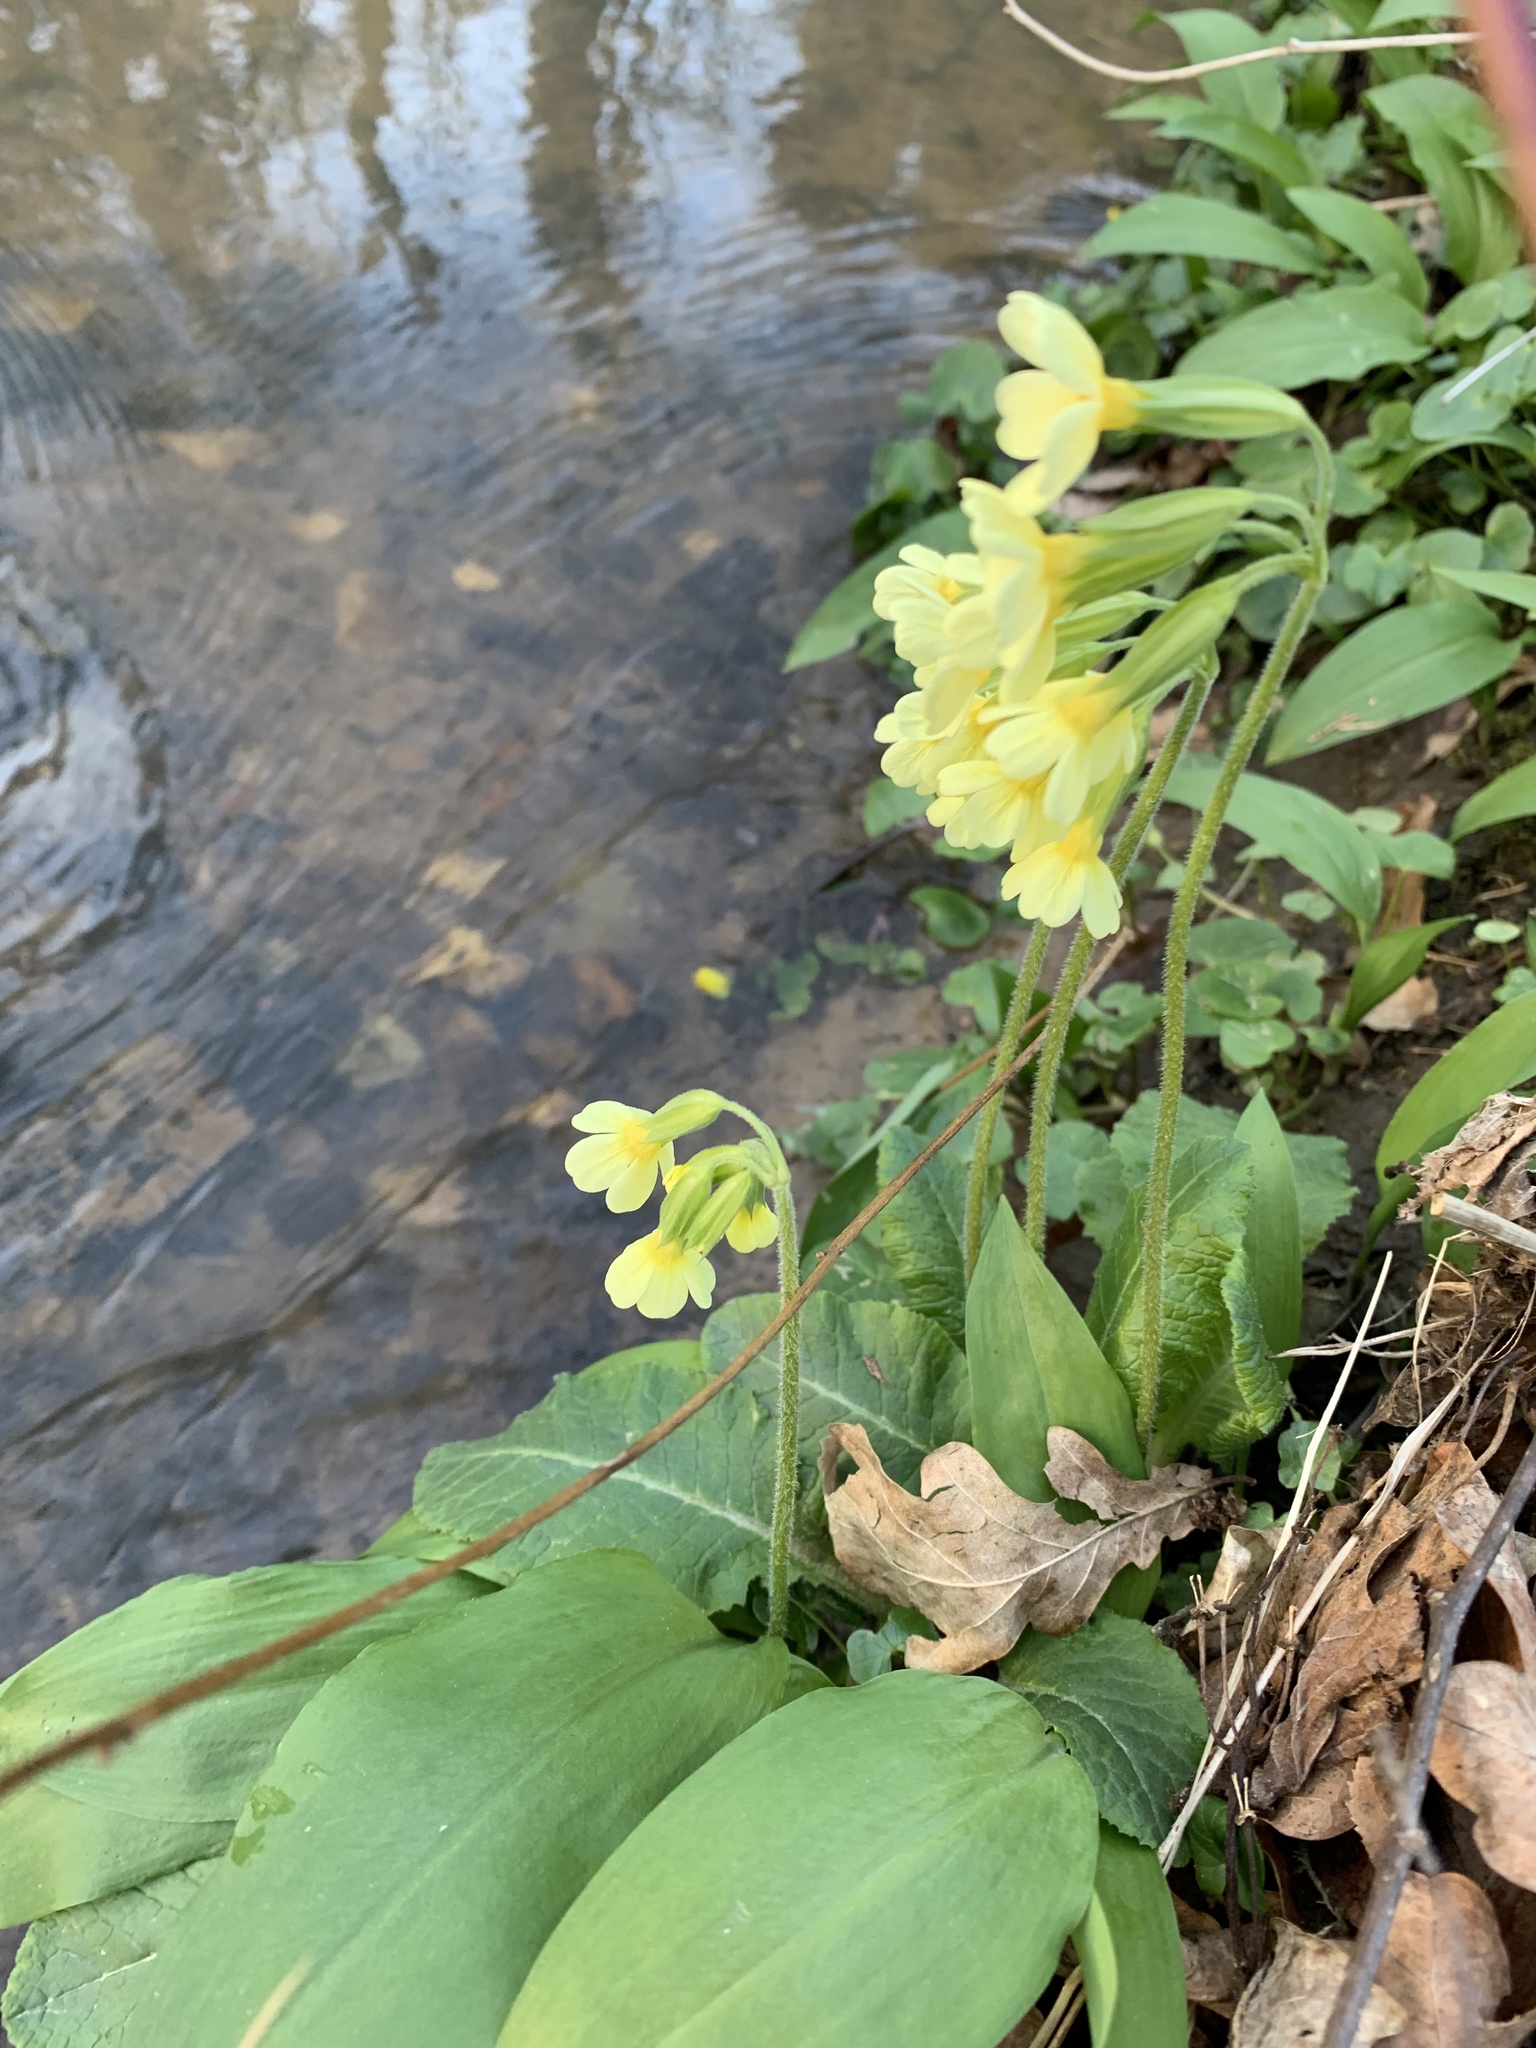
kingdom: Plantae
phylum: Tracheophyta
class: Magnoliopsida
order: Ericales
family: Primulaceae
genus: Primula
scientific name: Primula elatior
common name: Oxlip
